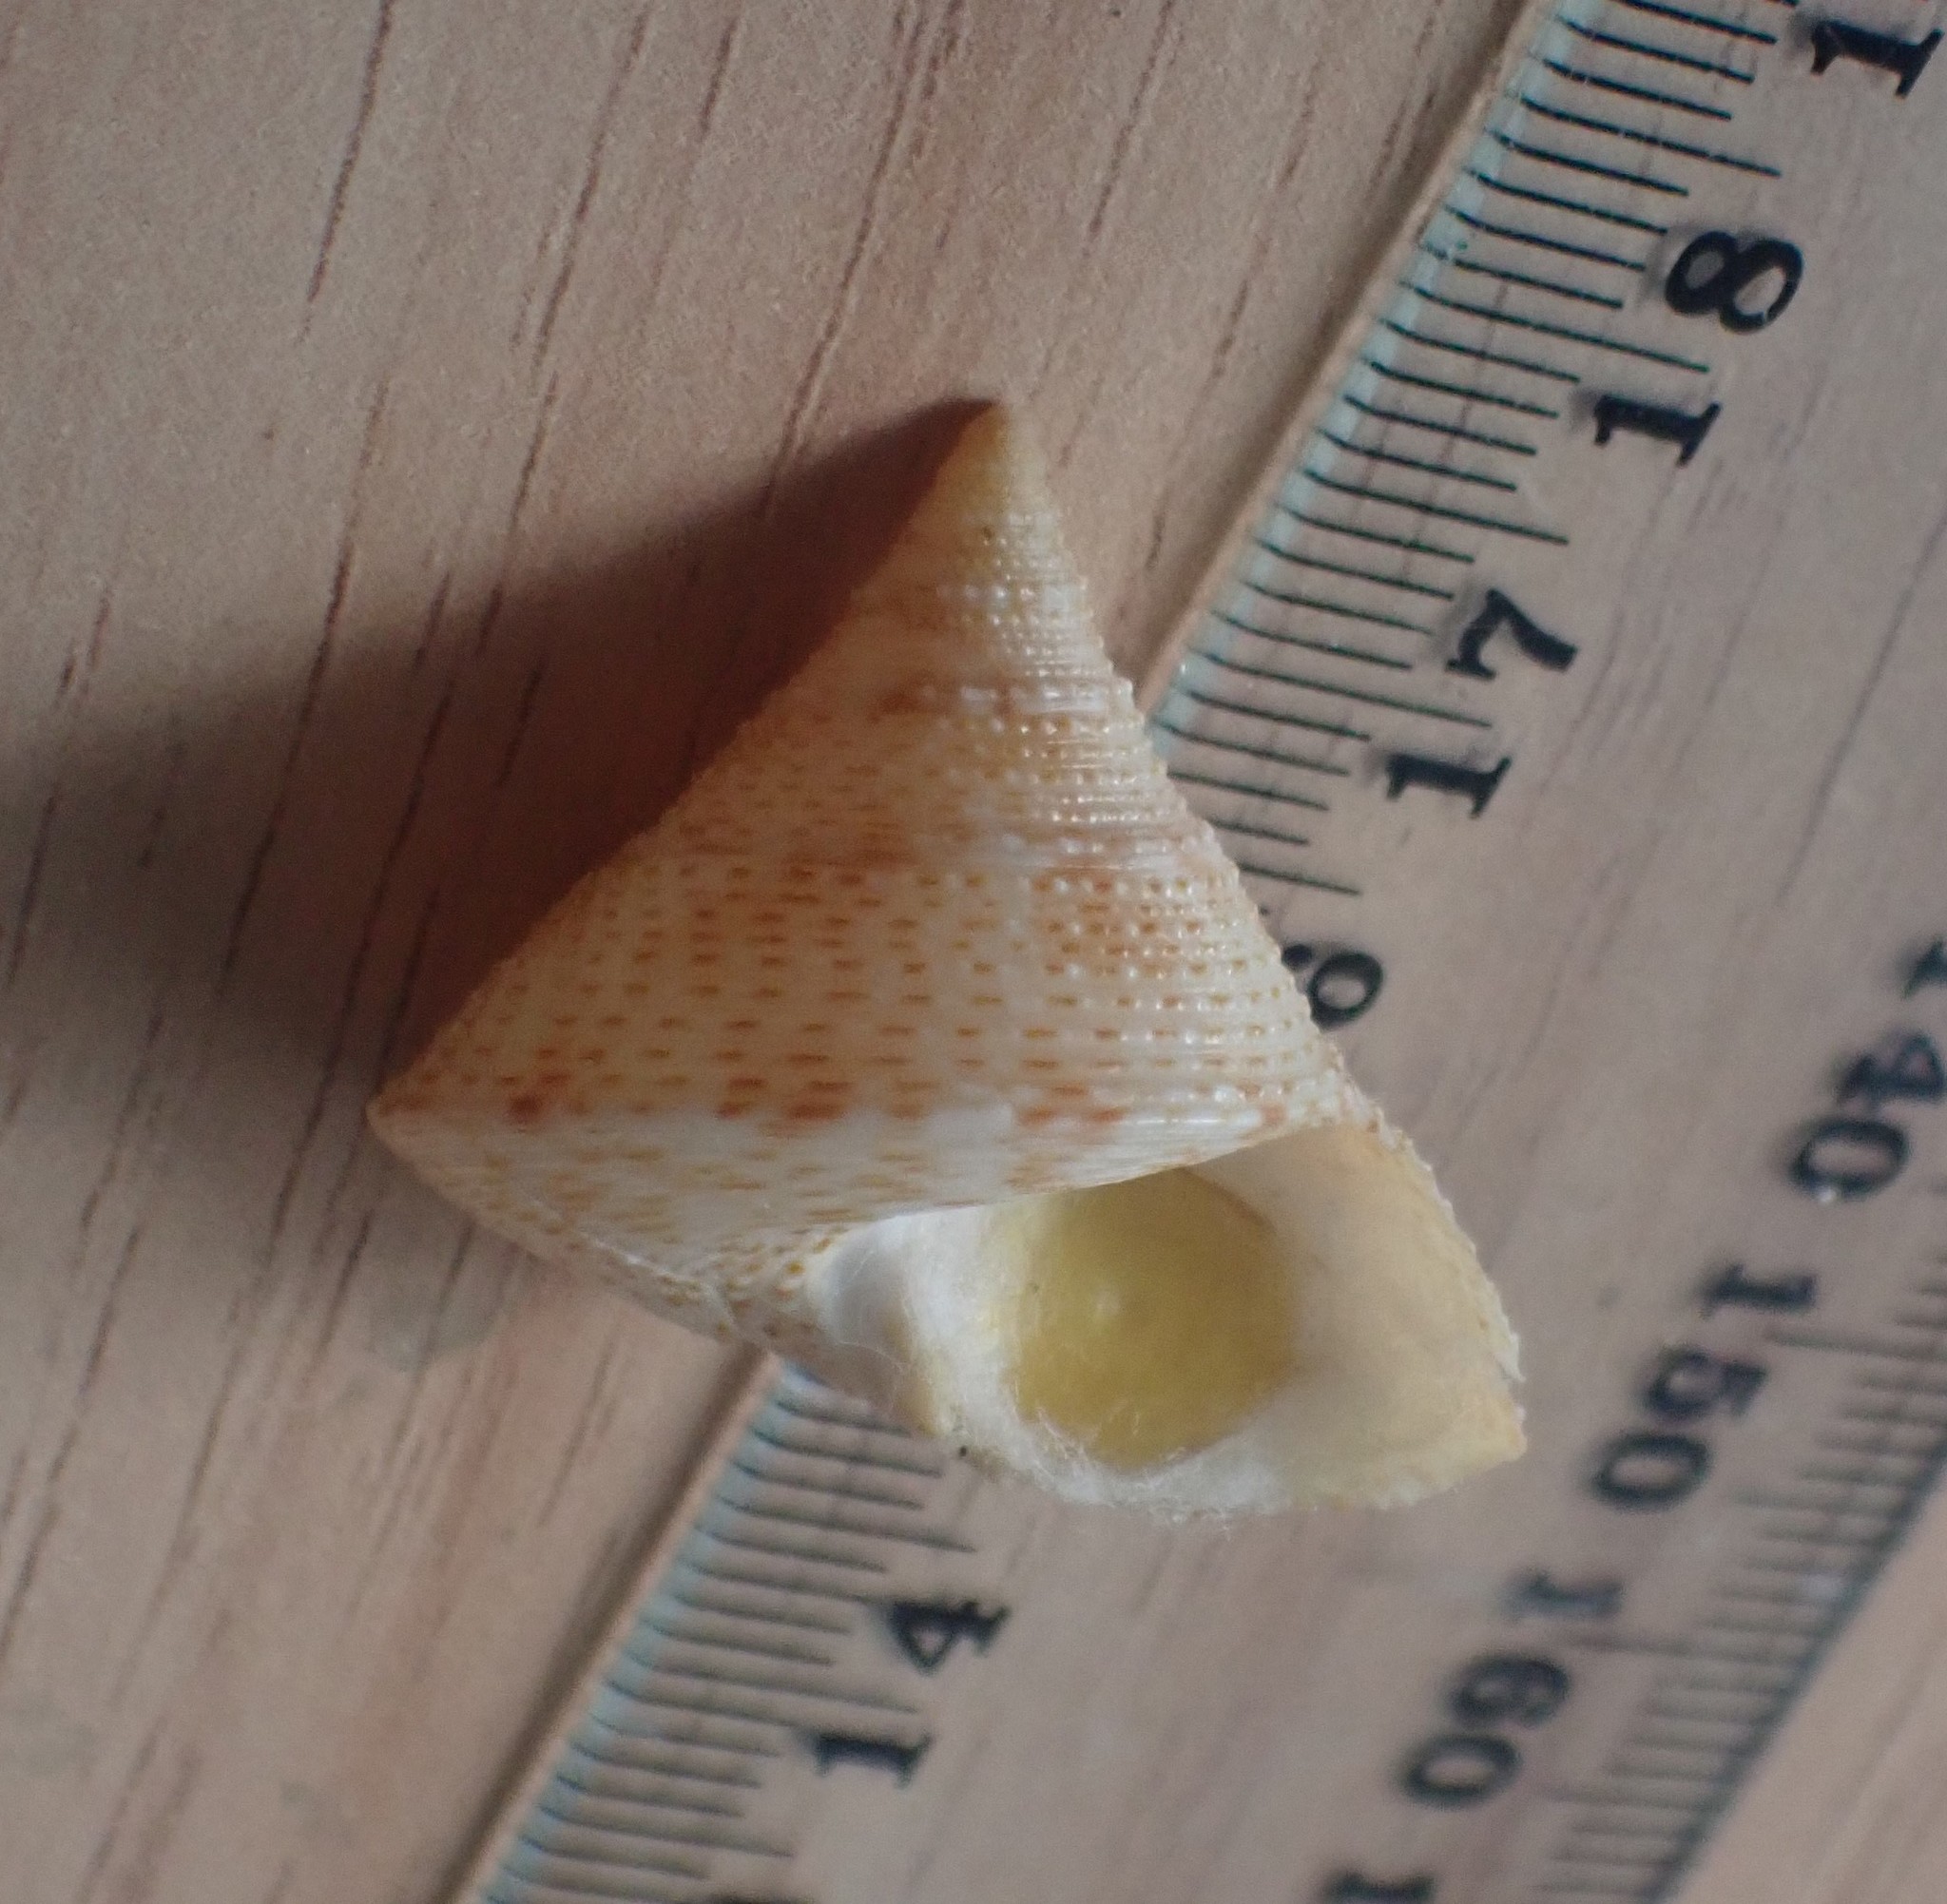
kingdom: Animalia
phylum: Mollusca
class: Gastropoda
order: Trochida
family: Calliostomatidae
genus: Maurea
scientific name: Maurea pellucida
